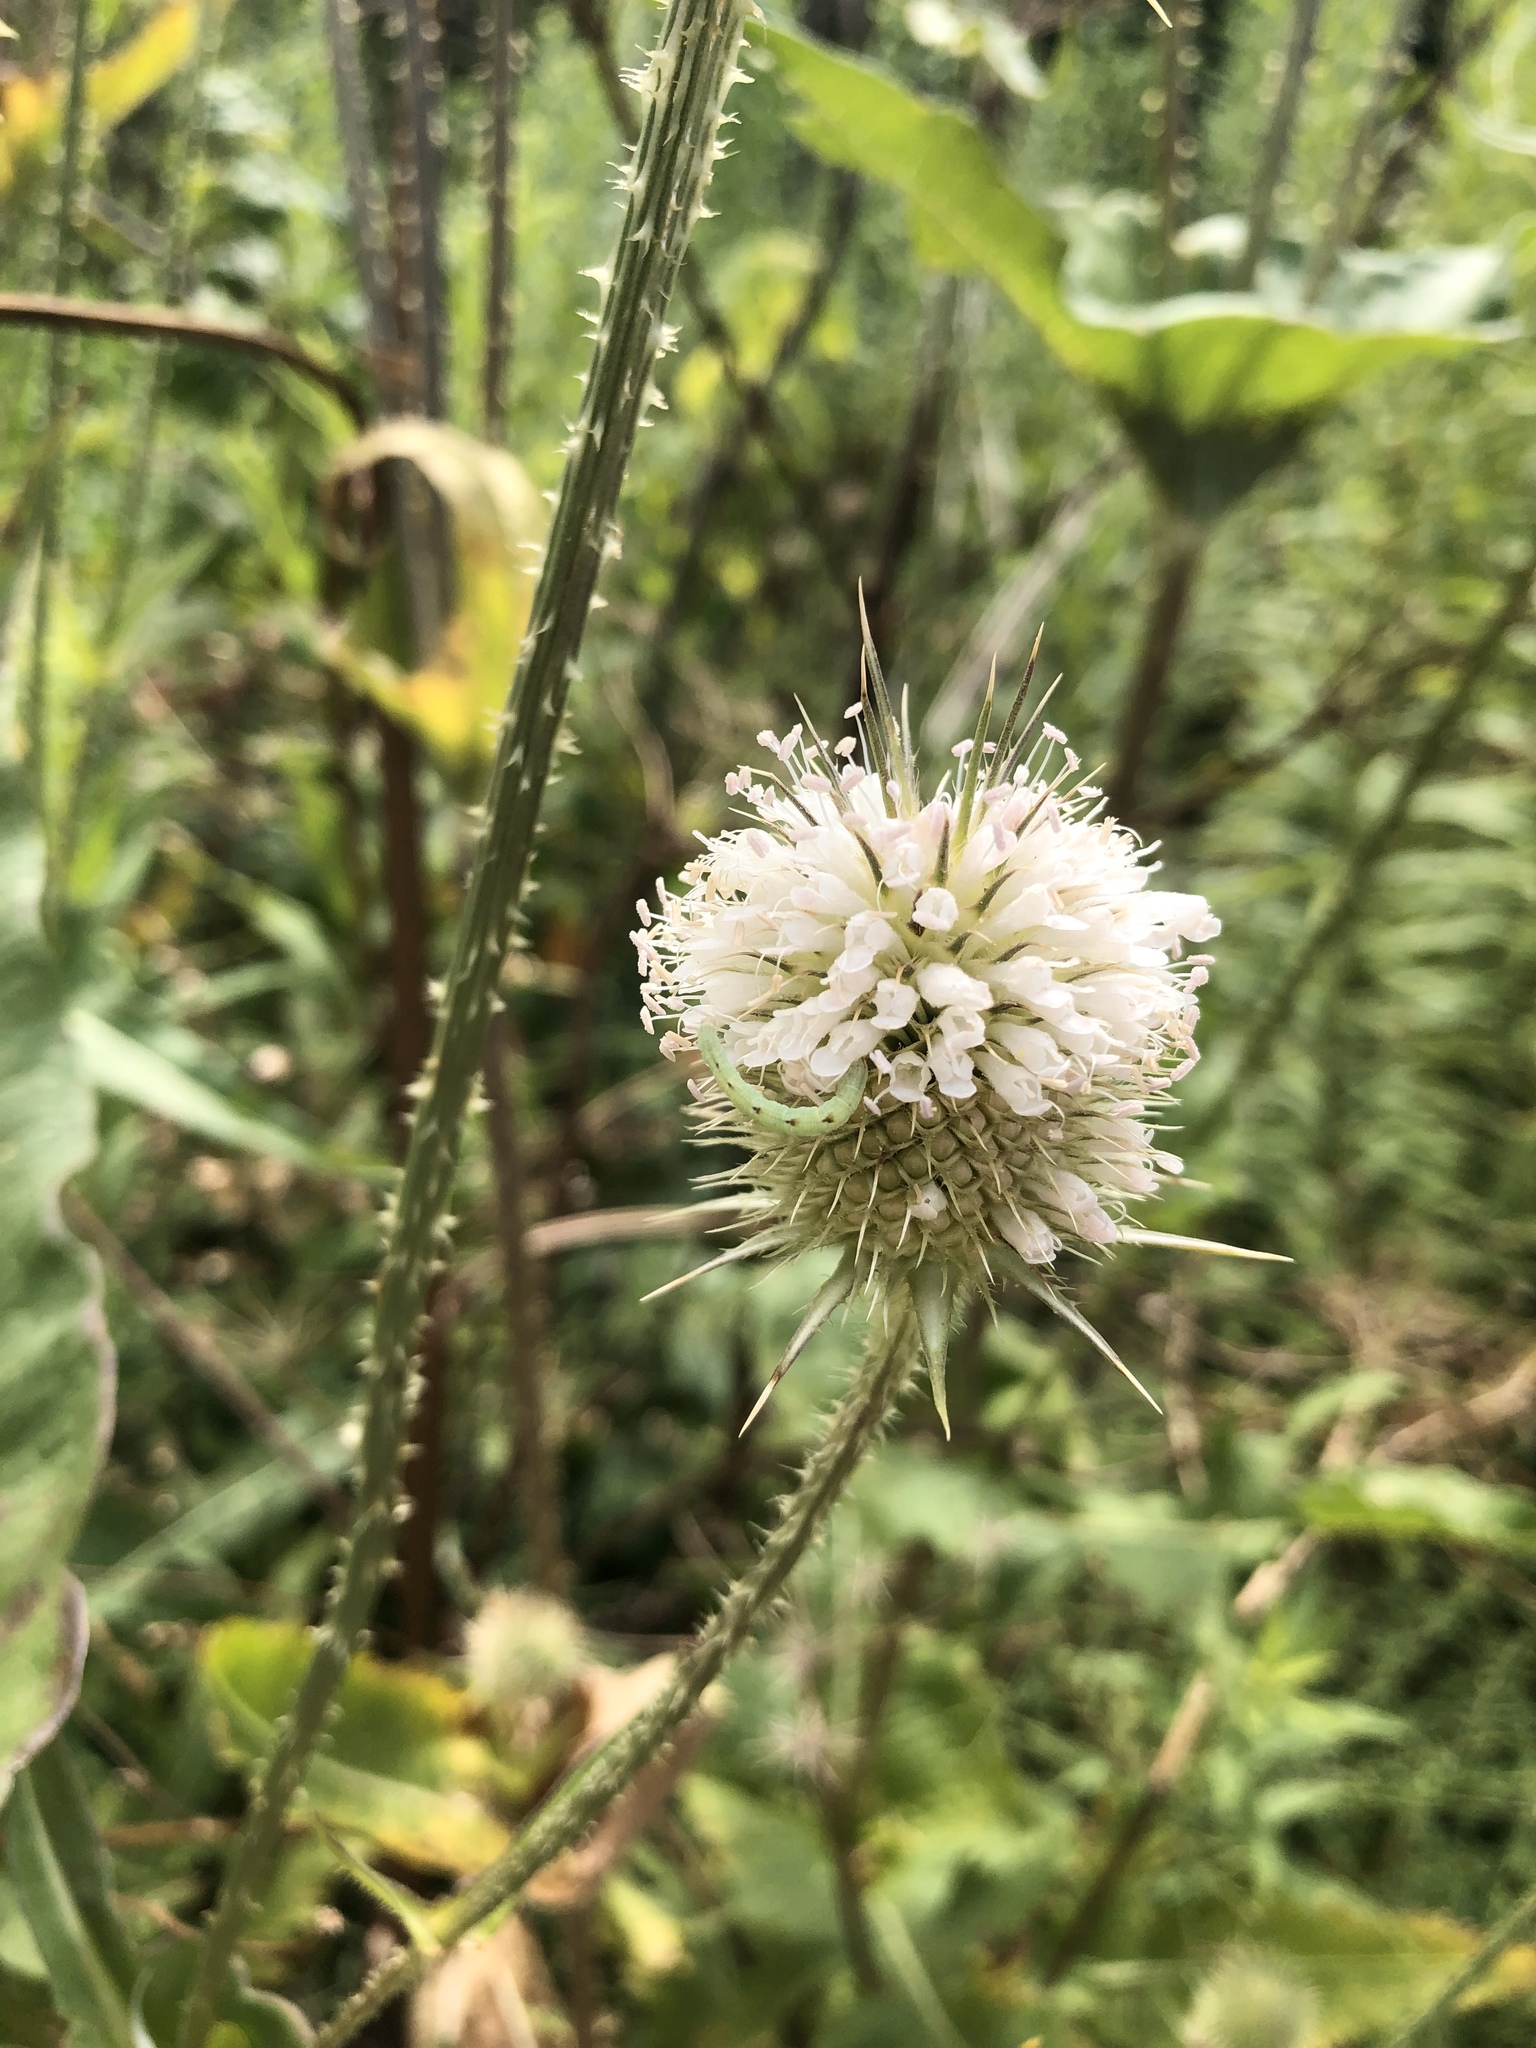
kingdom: Plantae
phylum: Tracheophyta
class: Magnoliopsida
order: Dipsacales
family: Caprifoliaceae
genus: Dipsacus
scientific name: Dipsacus laciniatus
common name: Cut-leaved teasel
